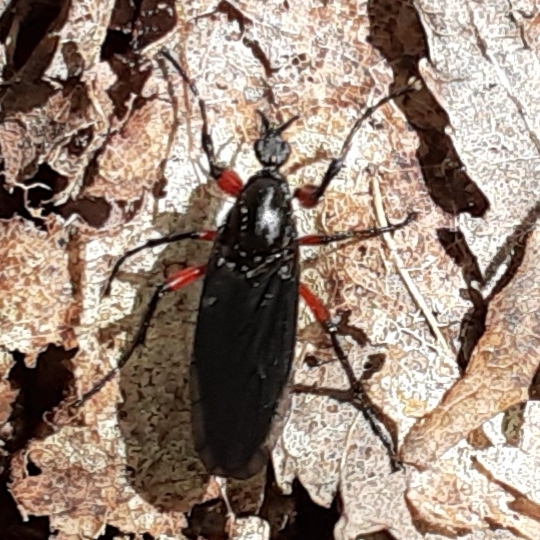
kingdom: Animalia
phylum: Arthropoda
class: Insecta
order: Diptera
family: Bibionidae
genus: Bibio
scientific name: Bibio femoratus
